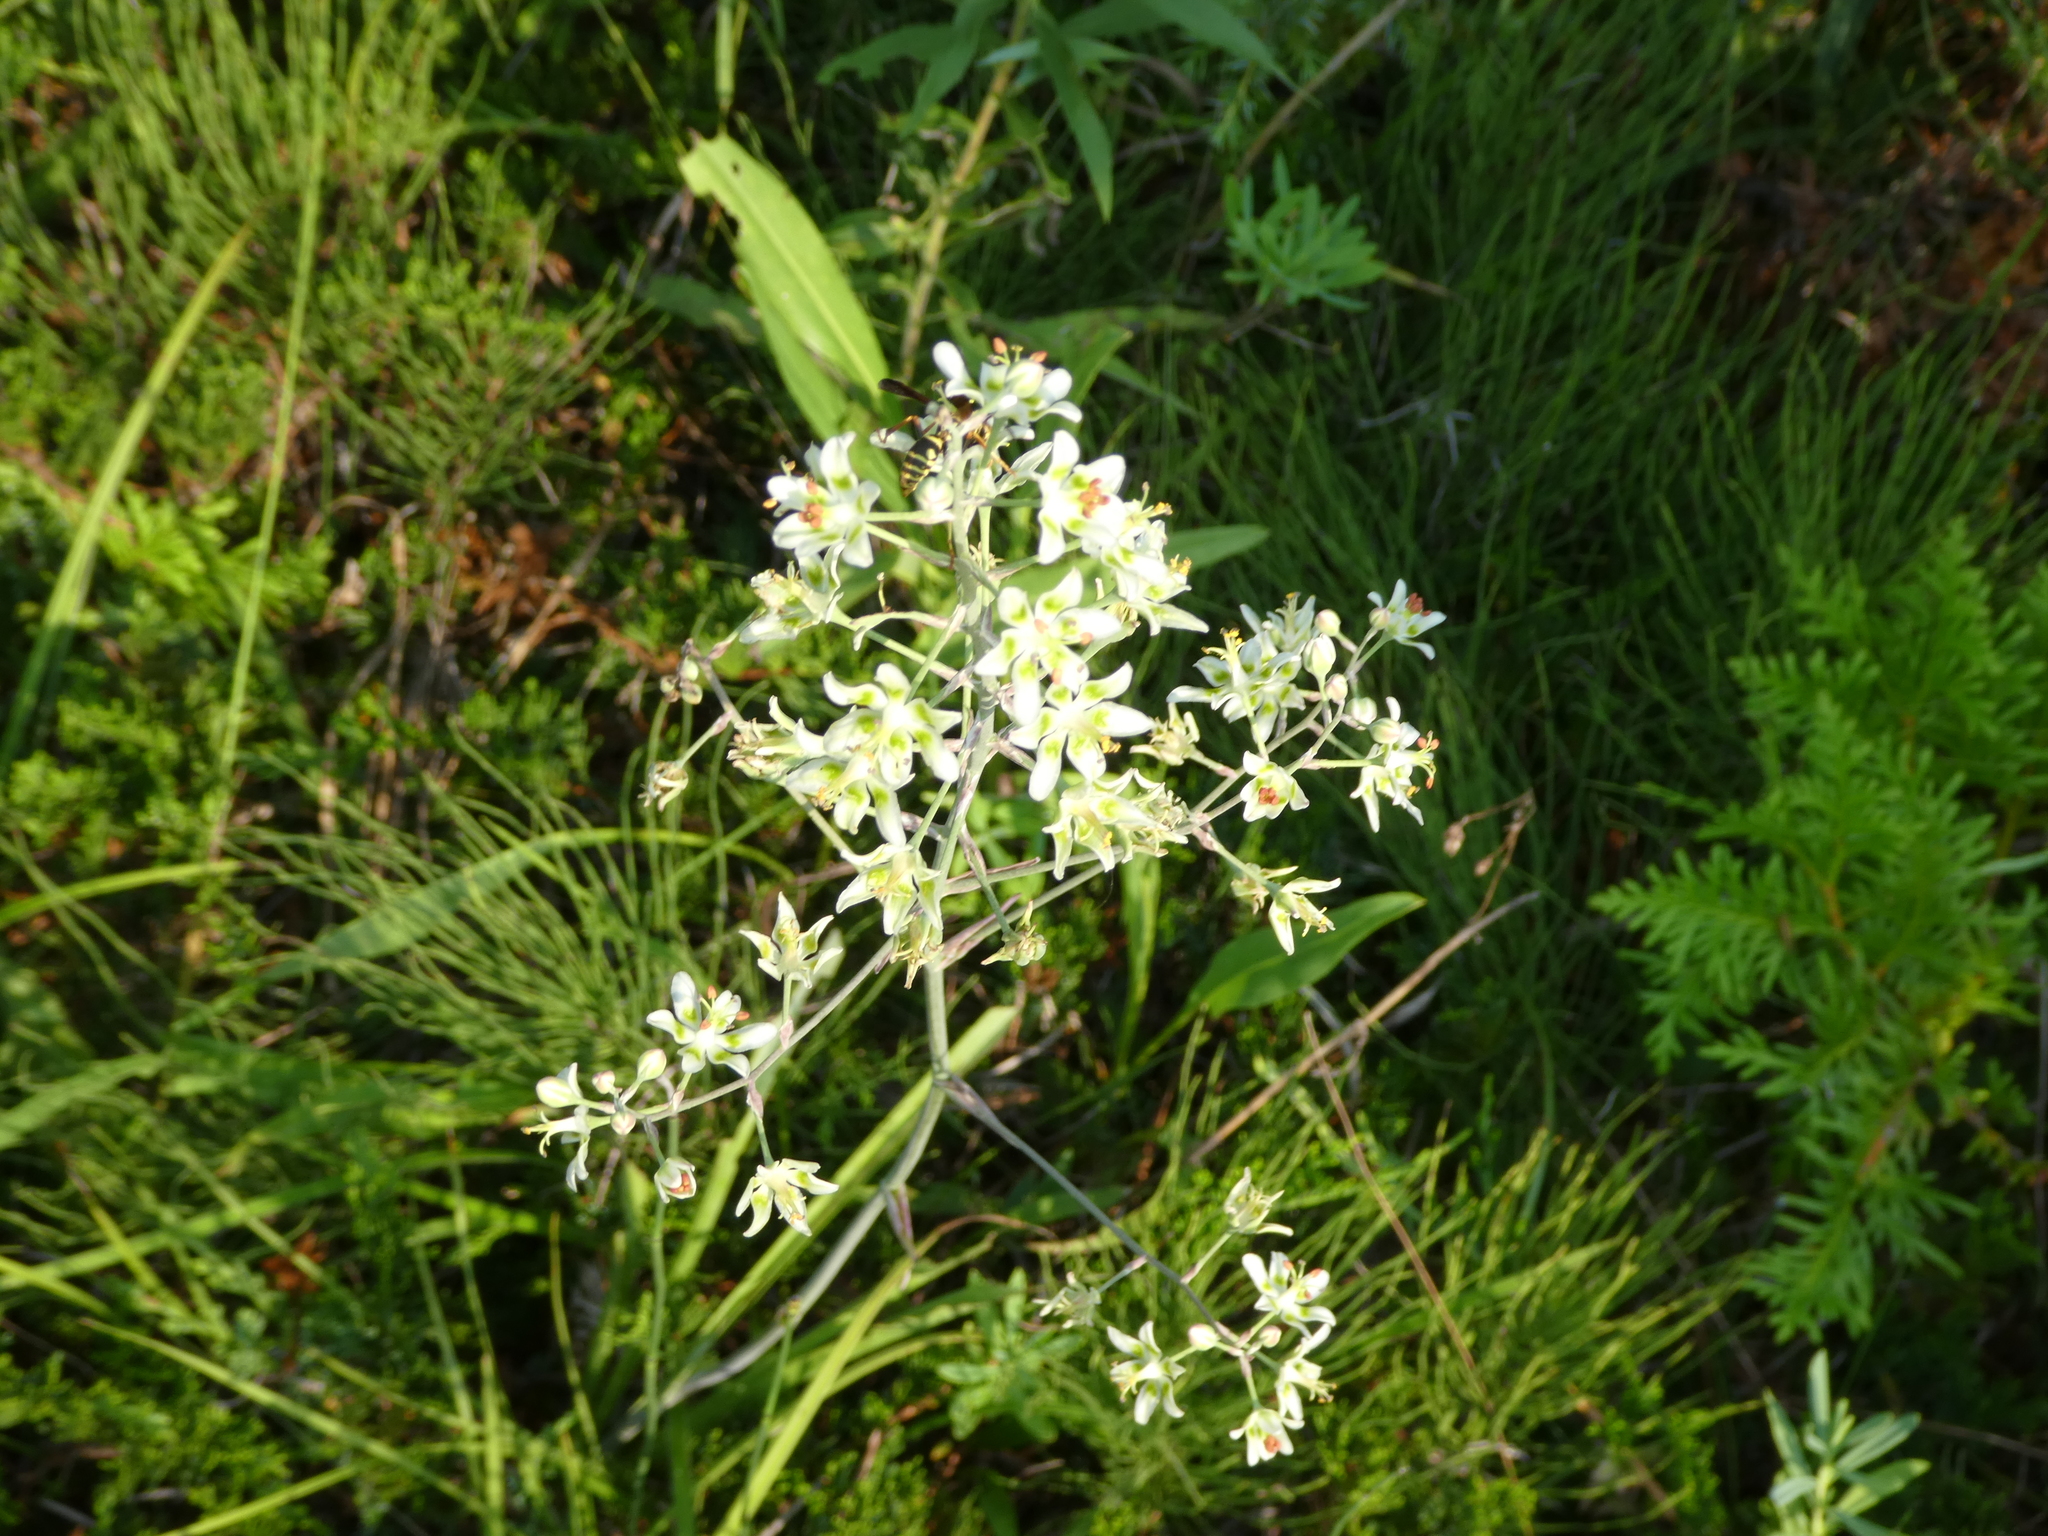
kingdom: Animalia
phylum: Arthropoda
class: Insecta
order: Hymenoptera
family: Eumenidae
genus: Polistes
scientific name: Polistes fuscatus
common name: Dark paper wasp
